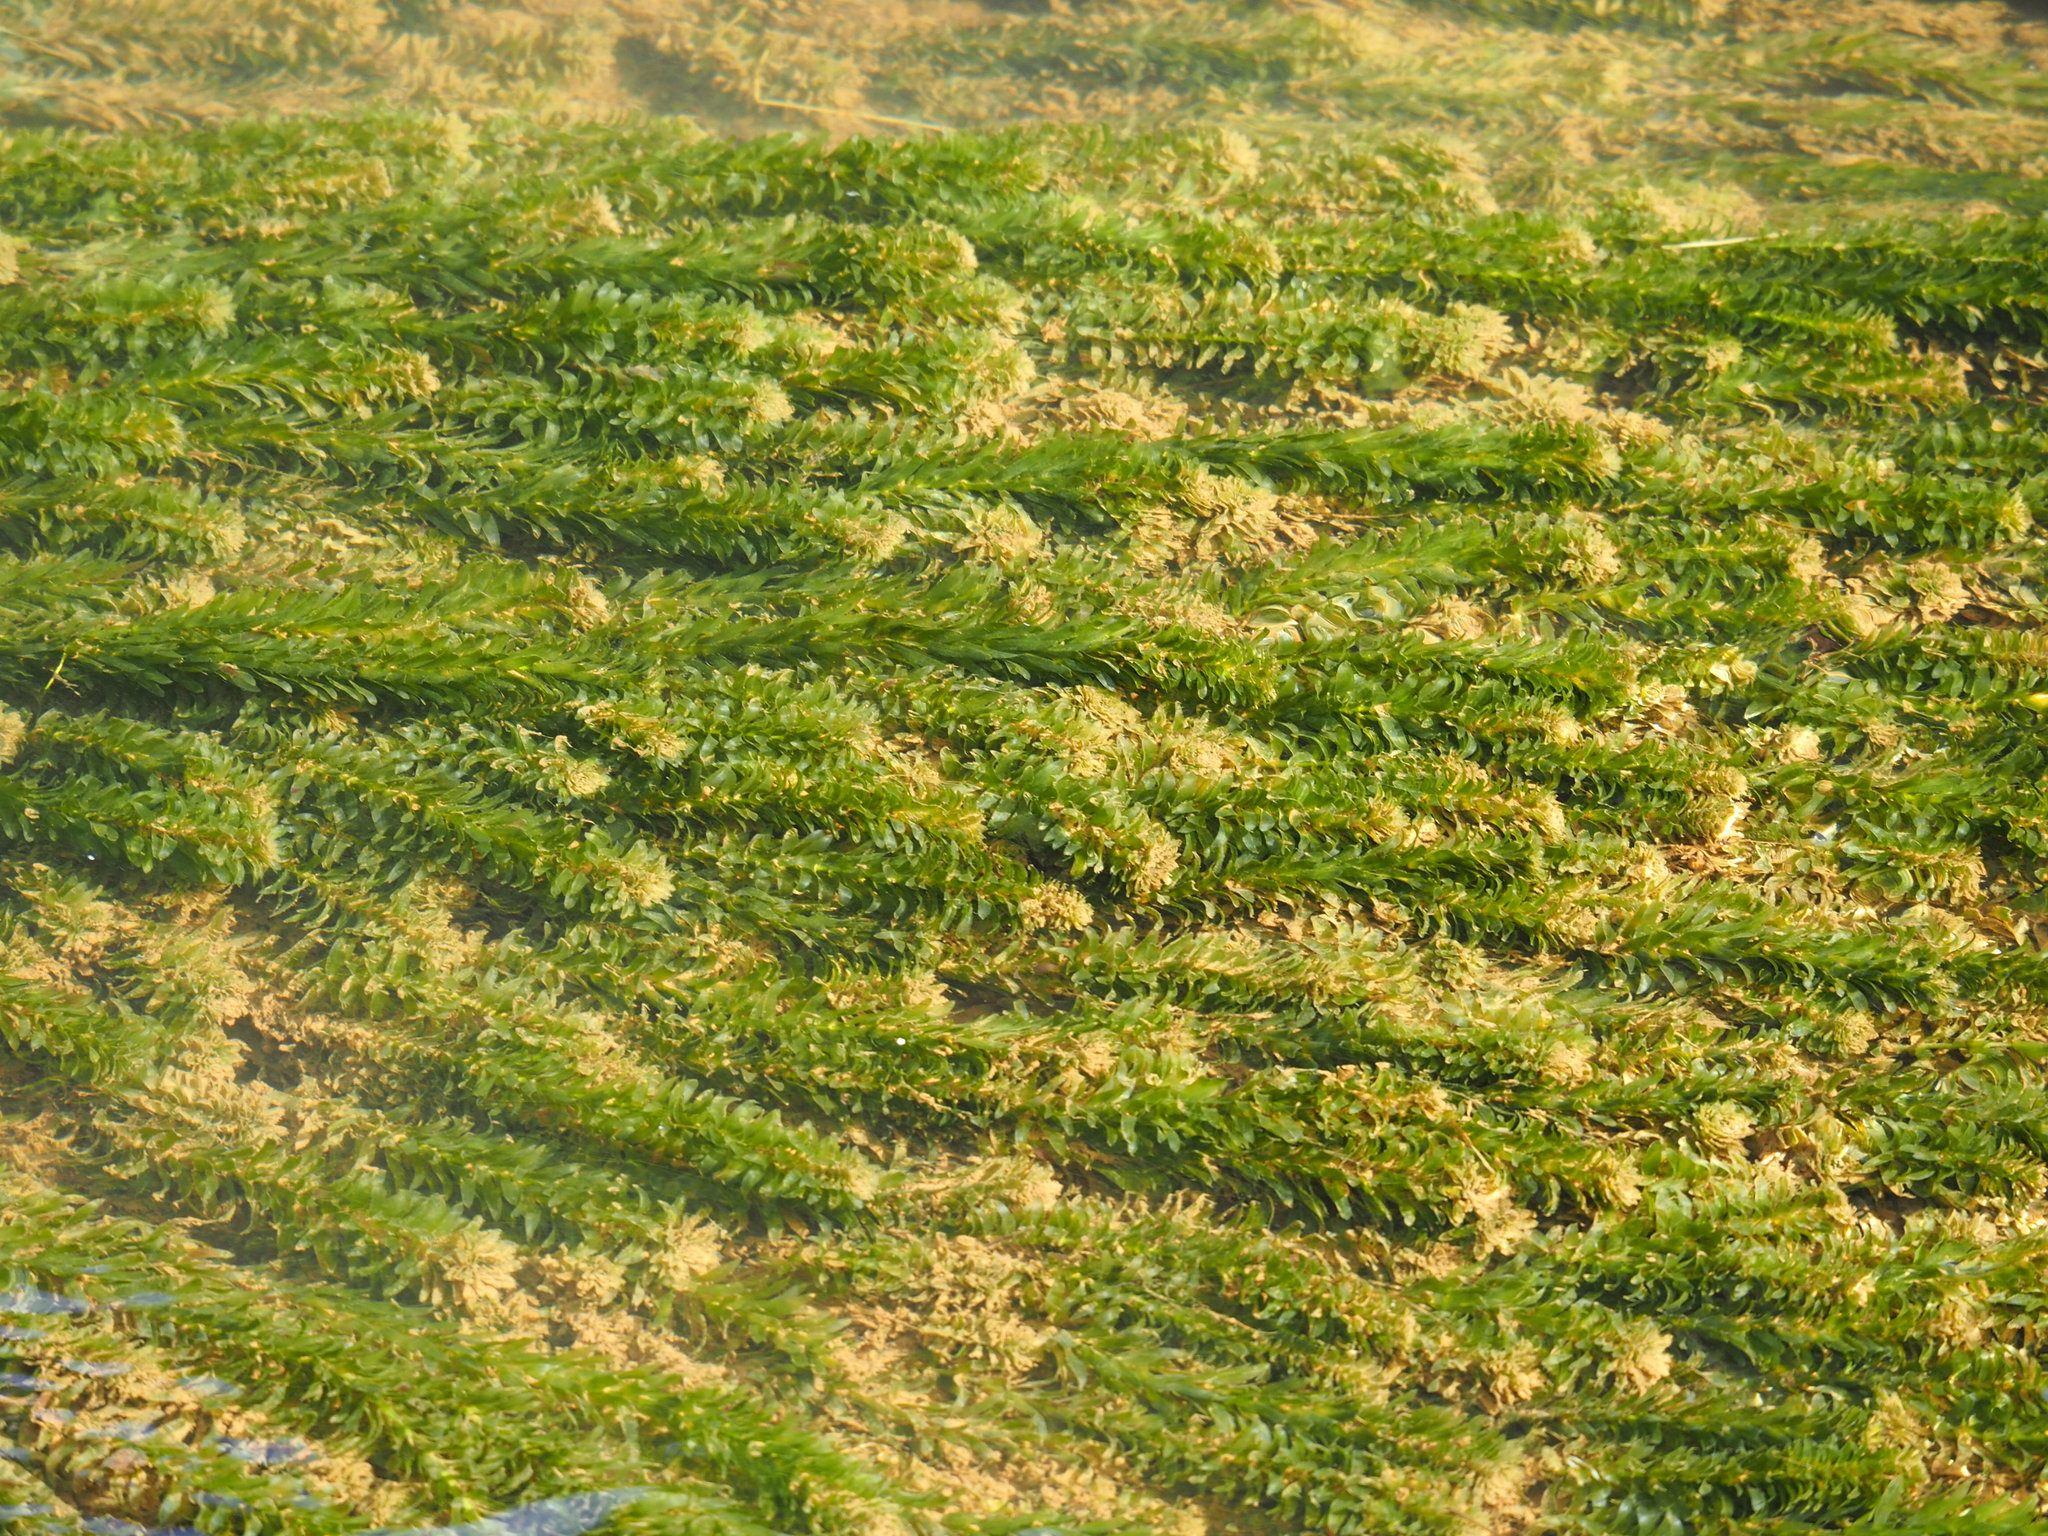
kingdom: Plantae
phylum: Tracheophyta
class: Liliopsida
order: Alismatales
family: Hydrocharitaceae
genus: Elodea
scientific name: Elodea densa
